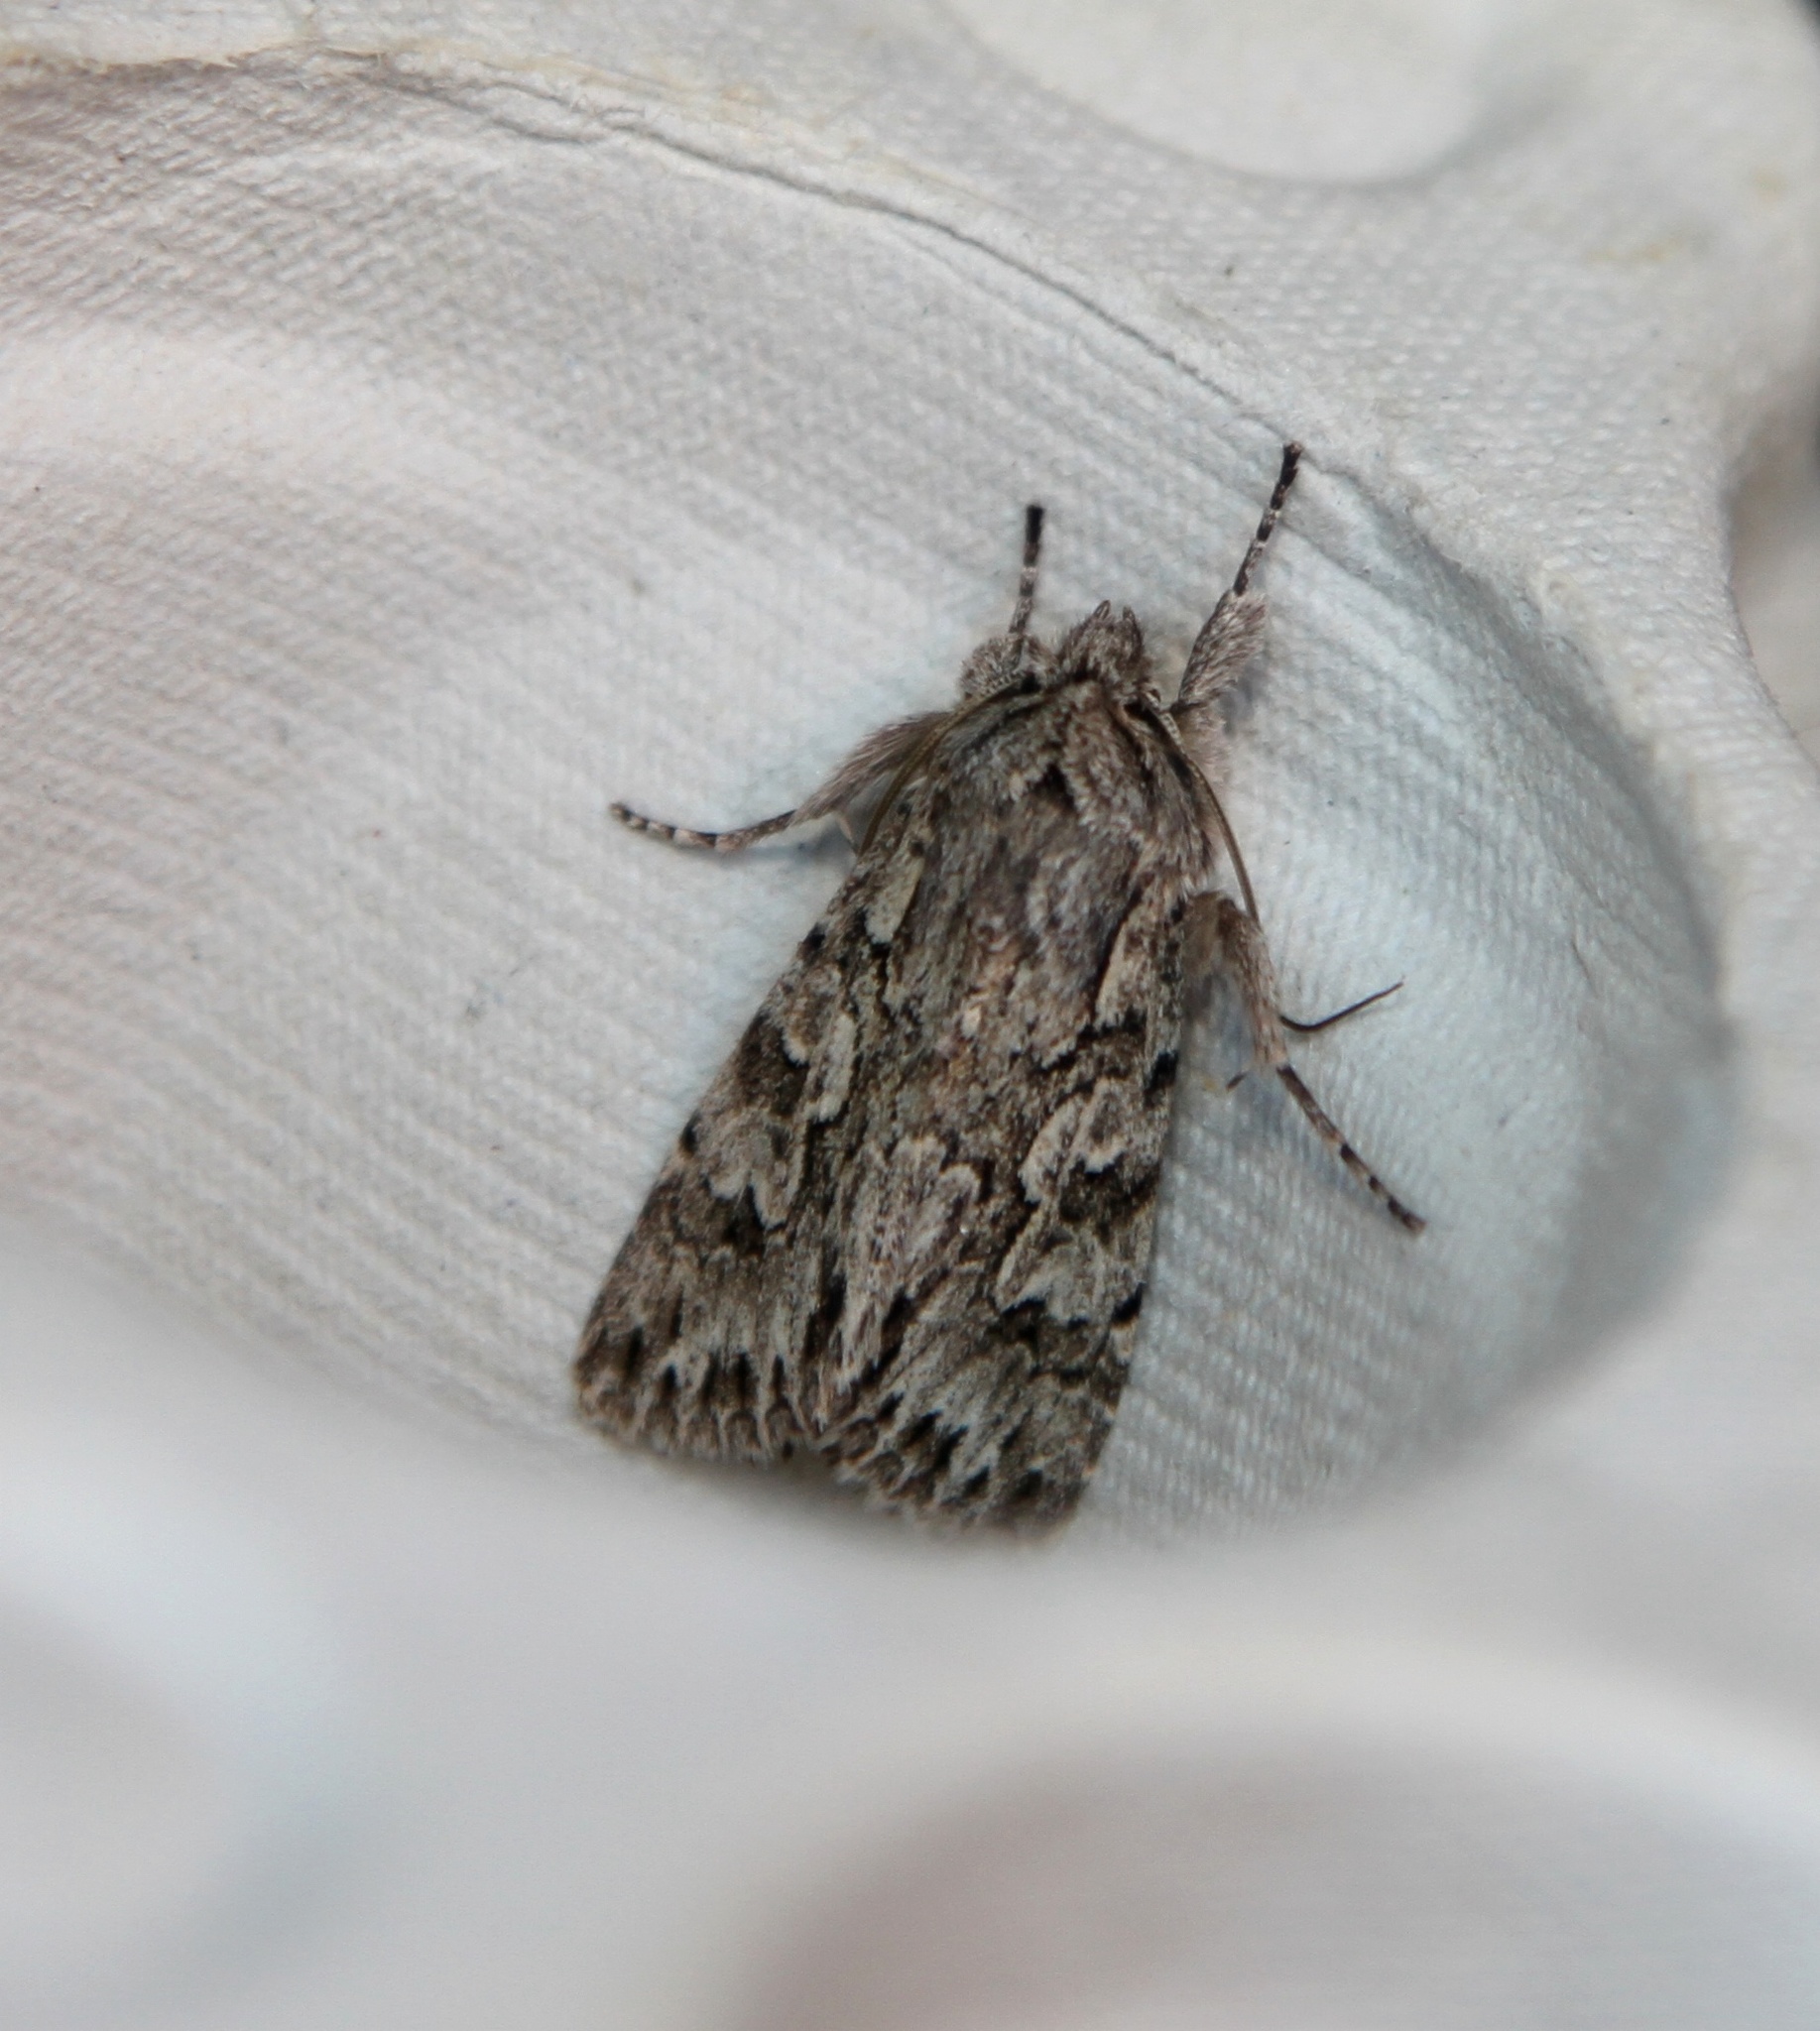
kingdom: Animalia
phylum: Arthropoda
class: Insecta
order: Lepidoptera
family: Noctuidae
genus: Xylocampa
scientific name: Xylocampa areola
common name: Early grey
